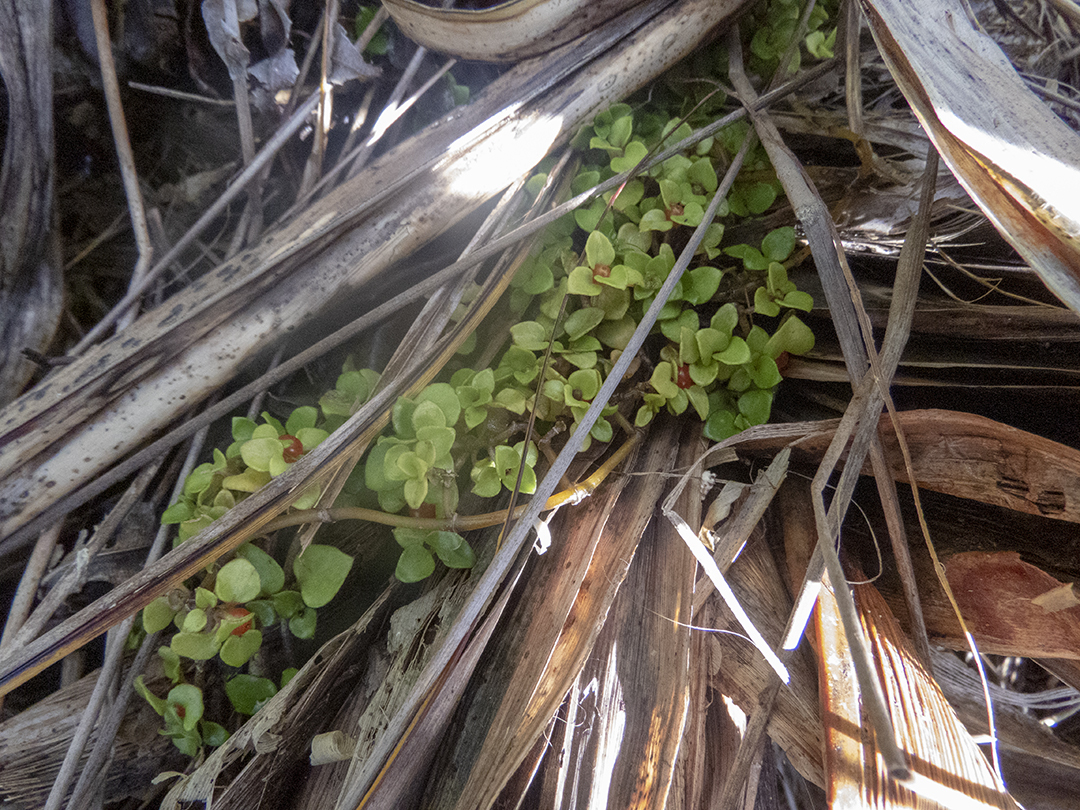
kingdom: Plantae
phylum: Tracheophyta
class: Magnoliopsida
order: Gentianales
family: Rubiaceae
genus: Nertera
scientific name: Nertera granadensis
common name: Beadplant
